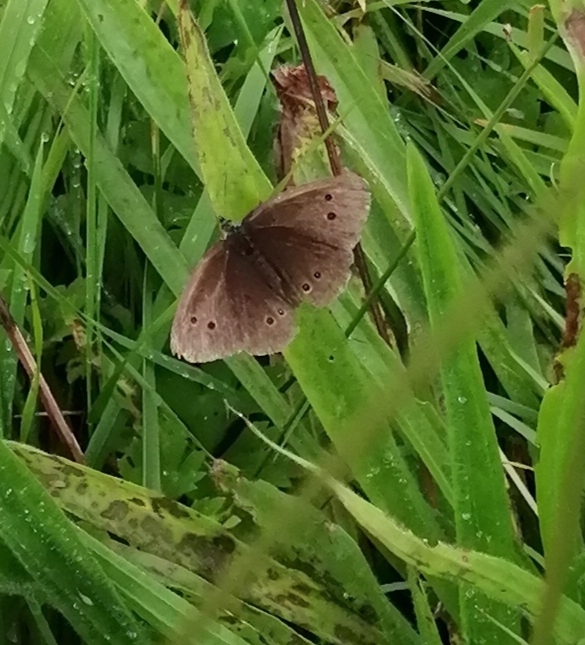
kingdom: Animalia
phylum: Arthropoda
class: Insecta
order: Lepidoptera
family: Nymphalidae
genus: Aphantopus
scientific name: Aphantopus hyperantus
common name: Ringlet
